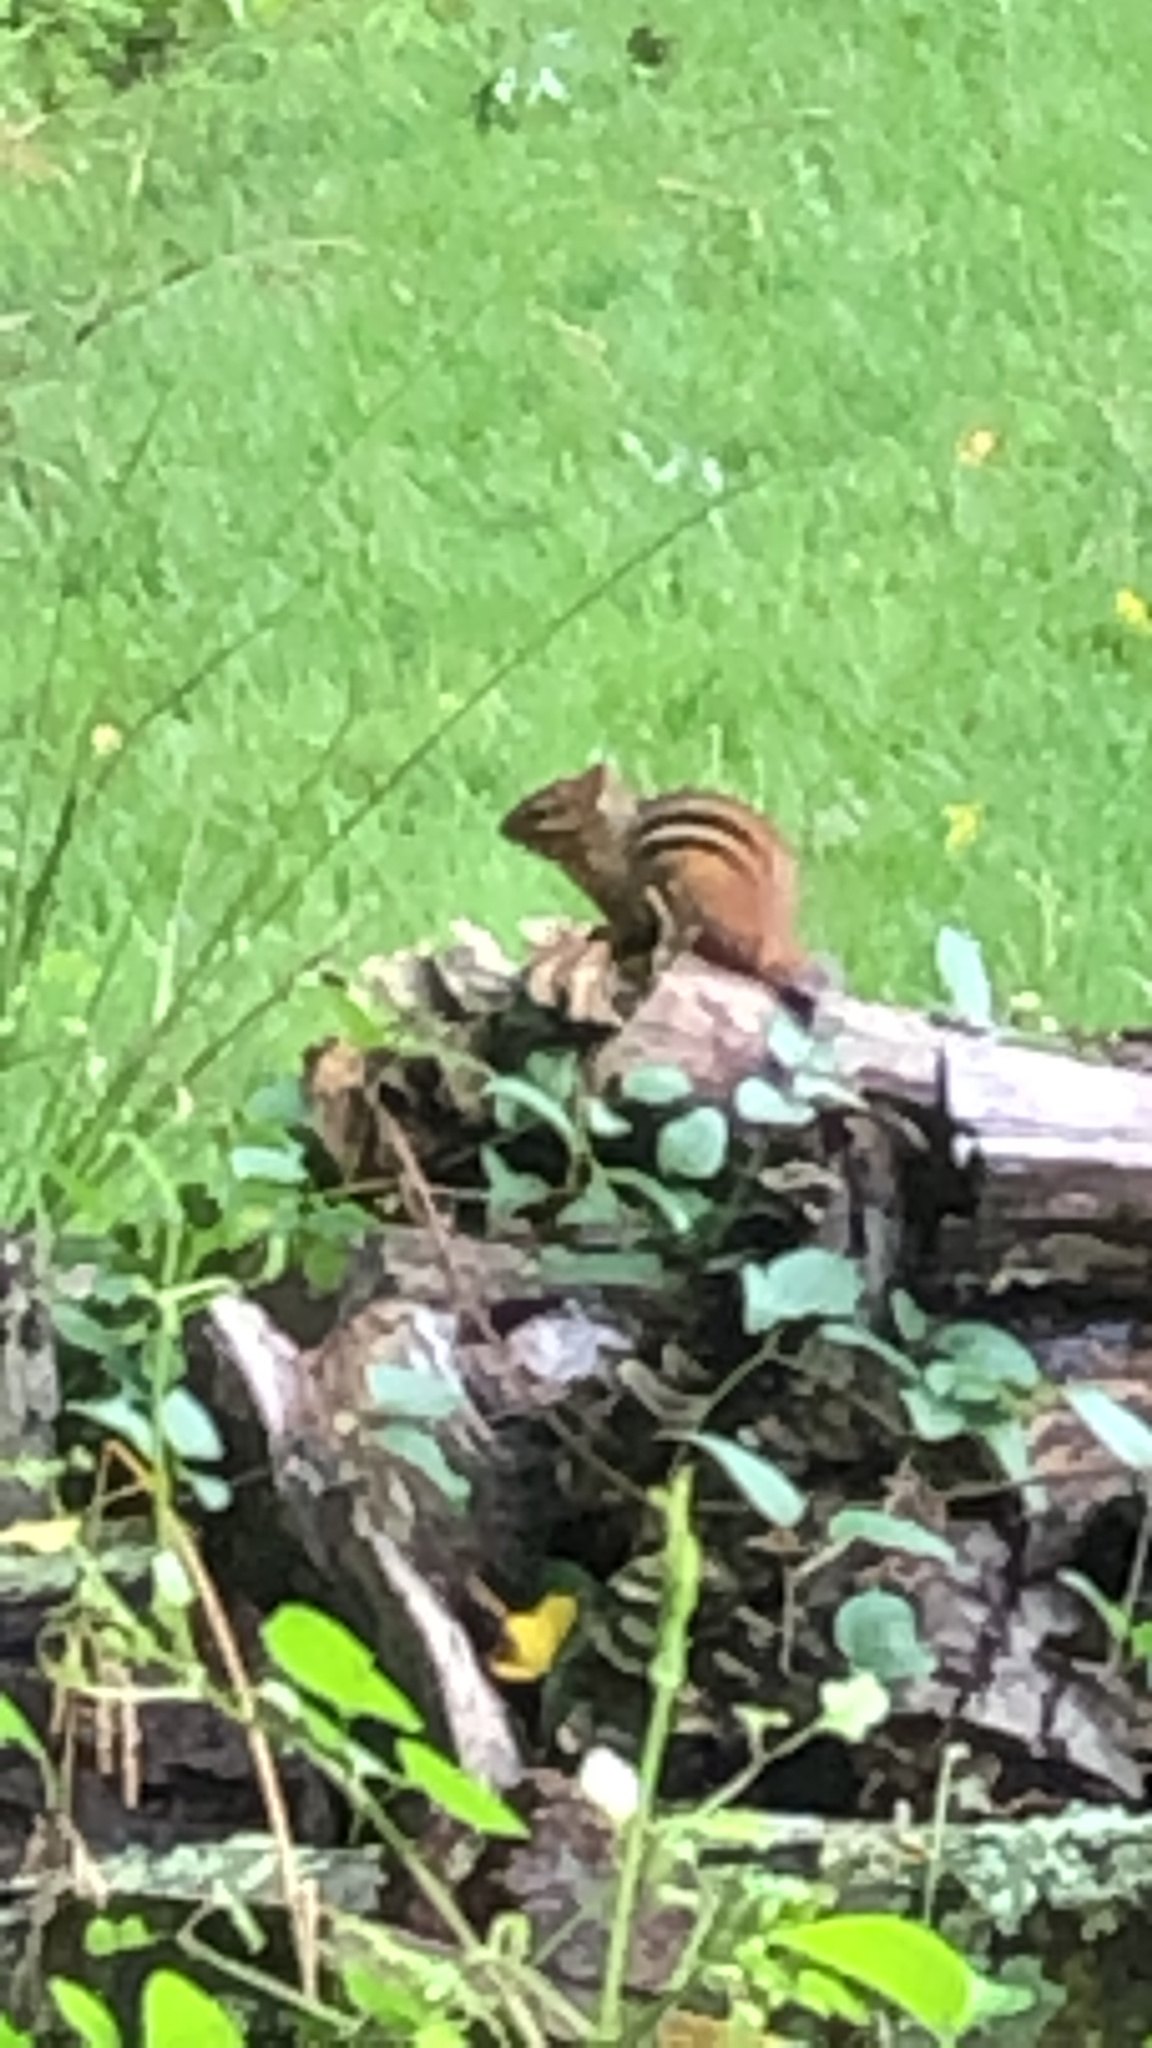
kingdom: Animalia
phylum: Chordata
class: Mammalia
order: Rodentia
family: Sciuridae
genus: Tamias
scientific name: Tamias striatus
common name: Eastern chipmunk
